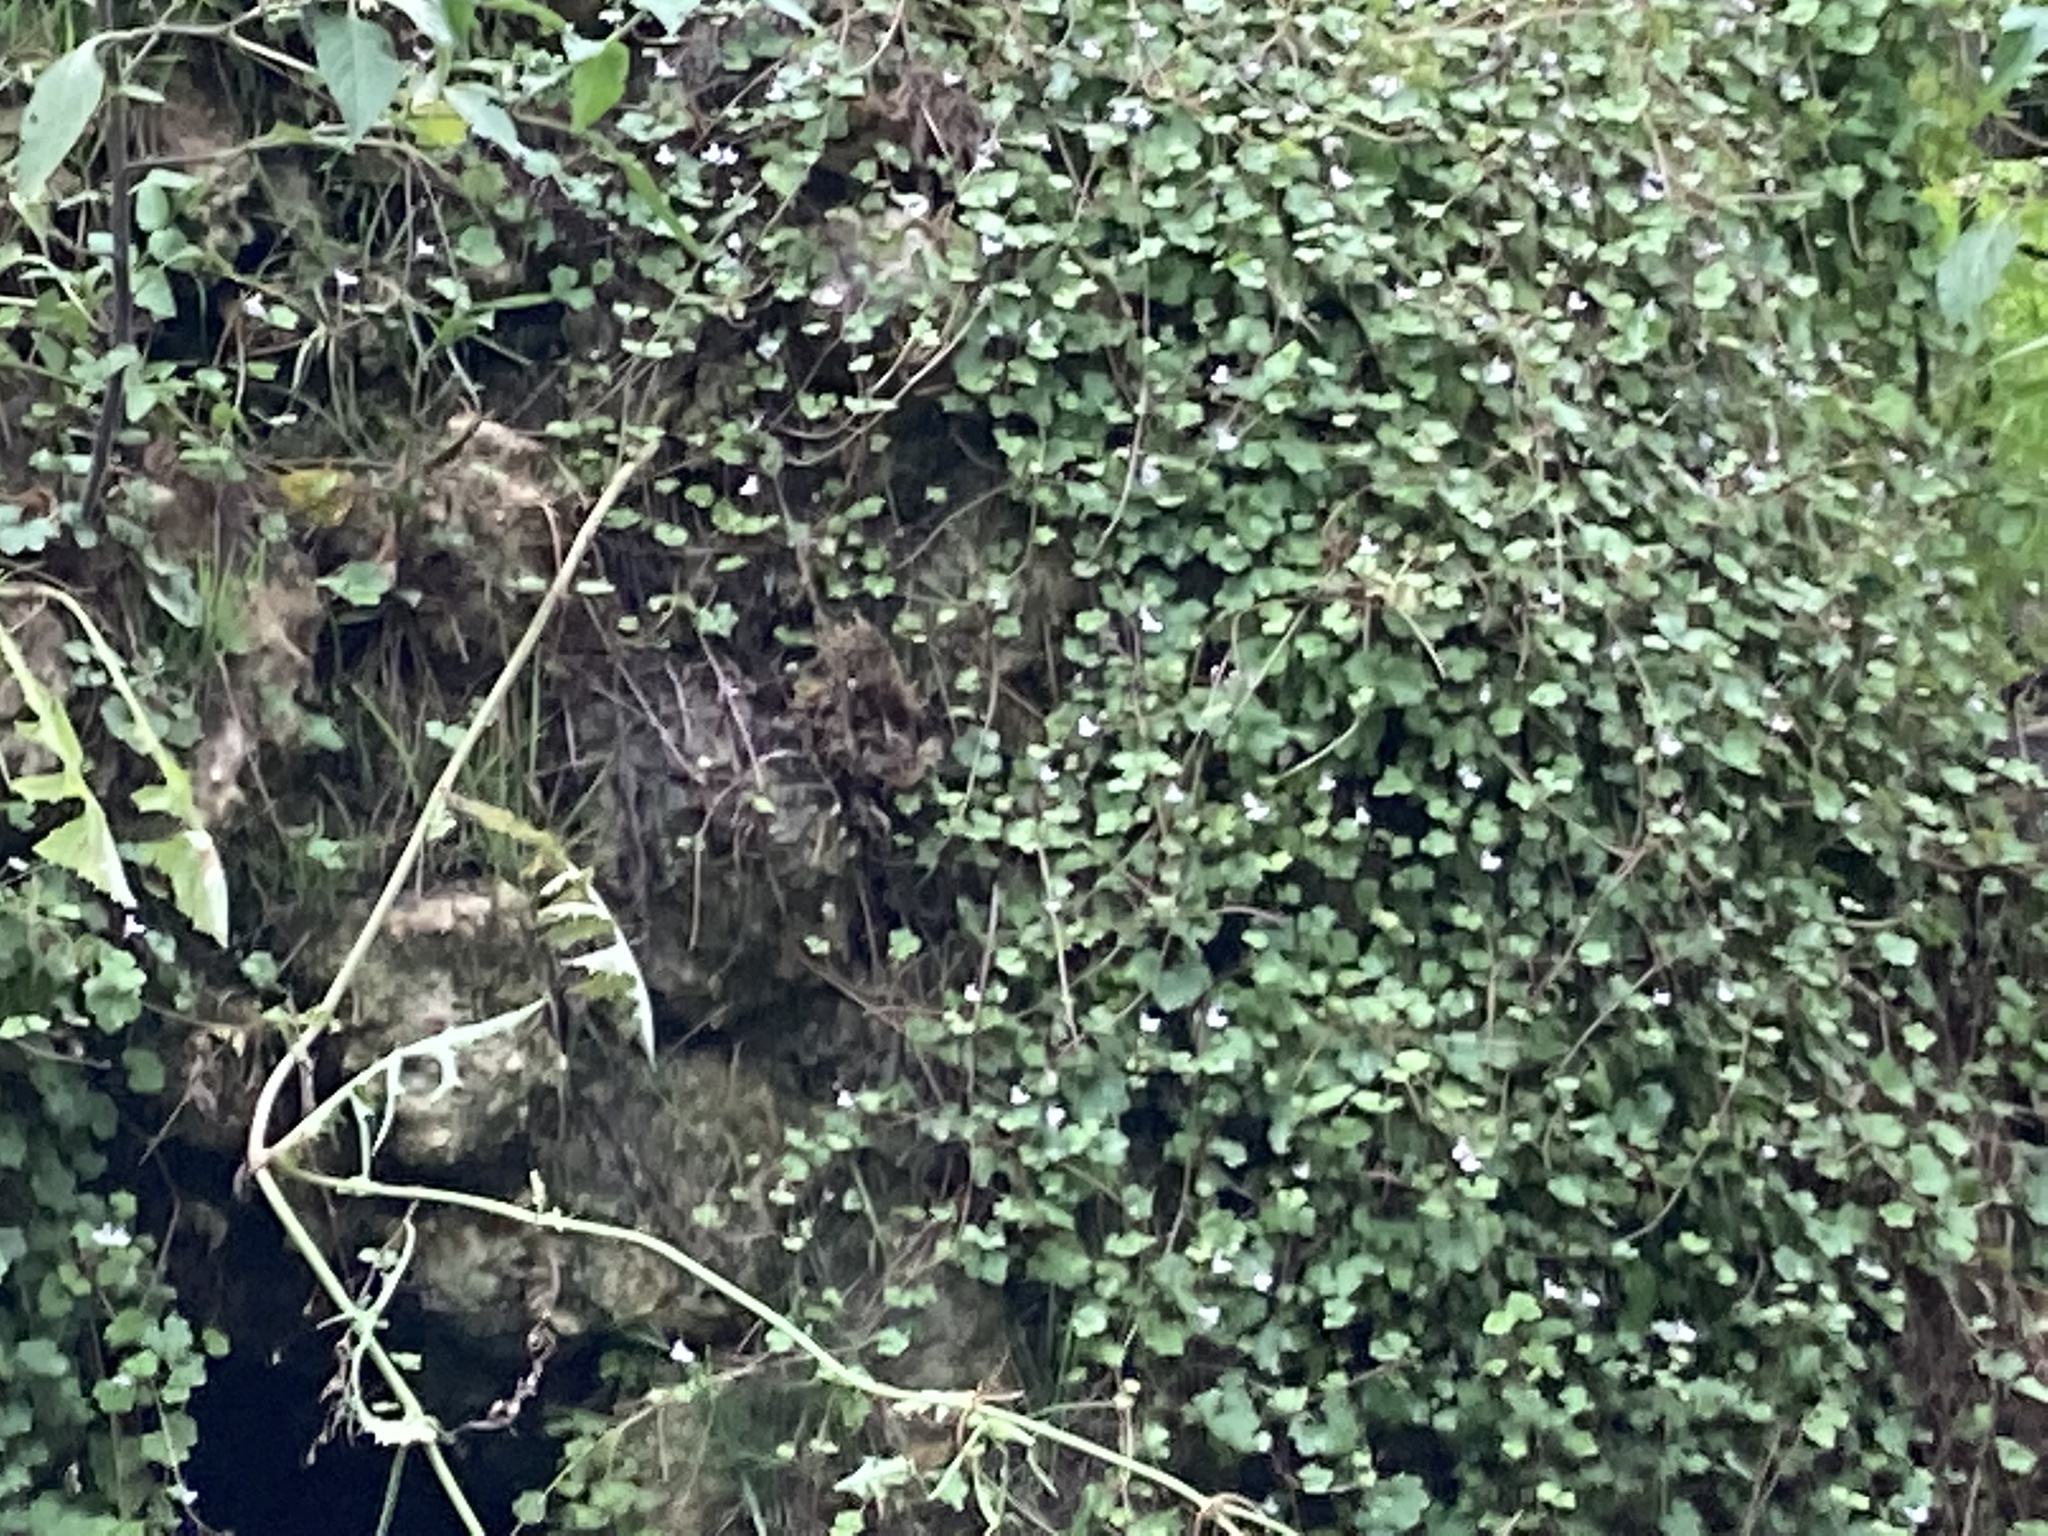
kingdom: Plantae
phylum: Tracheophyta
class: Magnoliopsida
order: Lamiales
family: Plantaginaceae
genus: Cymbalaria
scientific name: Cymbalaria muralis
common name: Ivy-leaved toadflax
